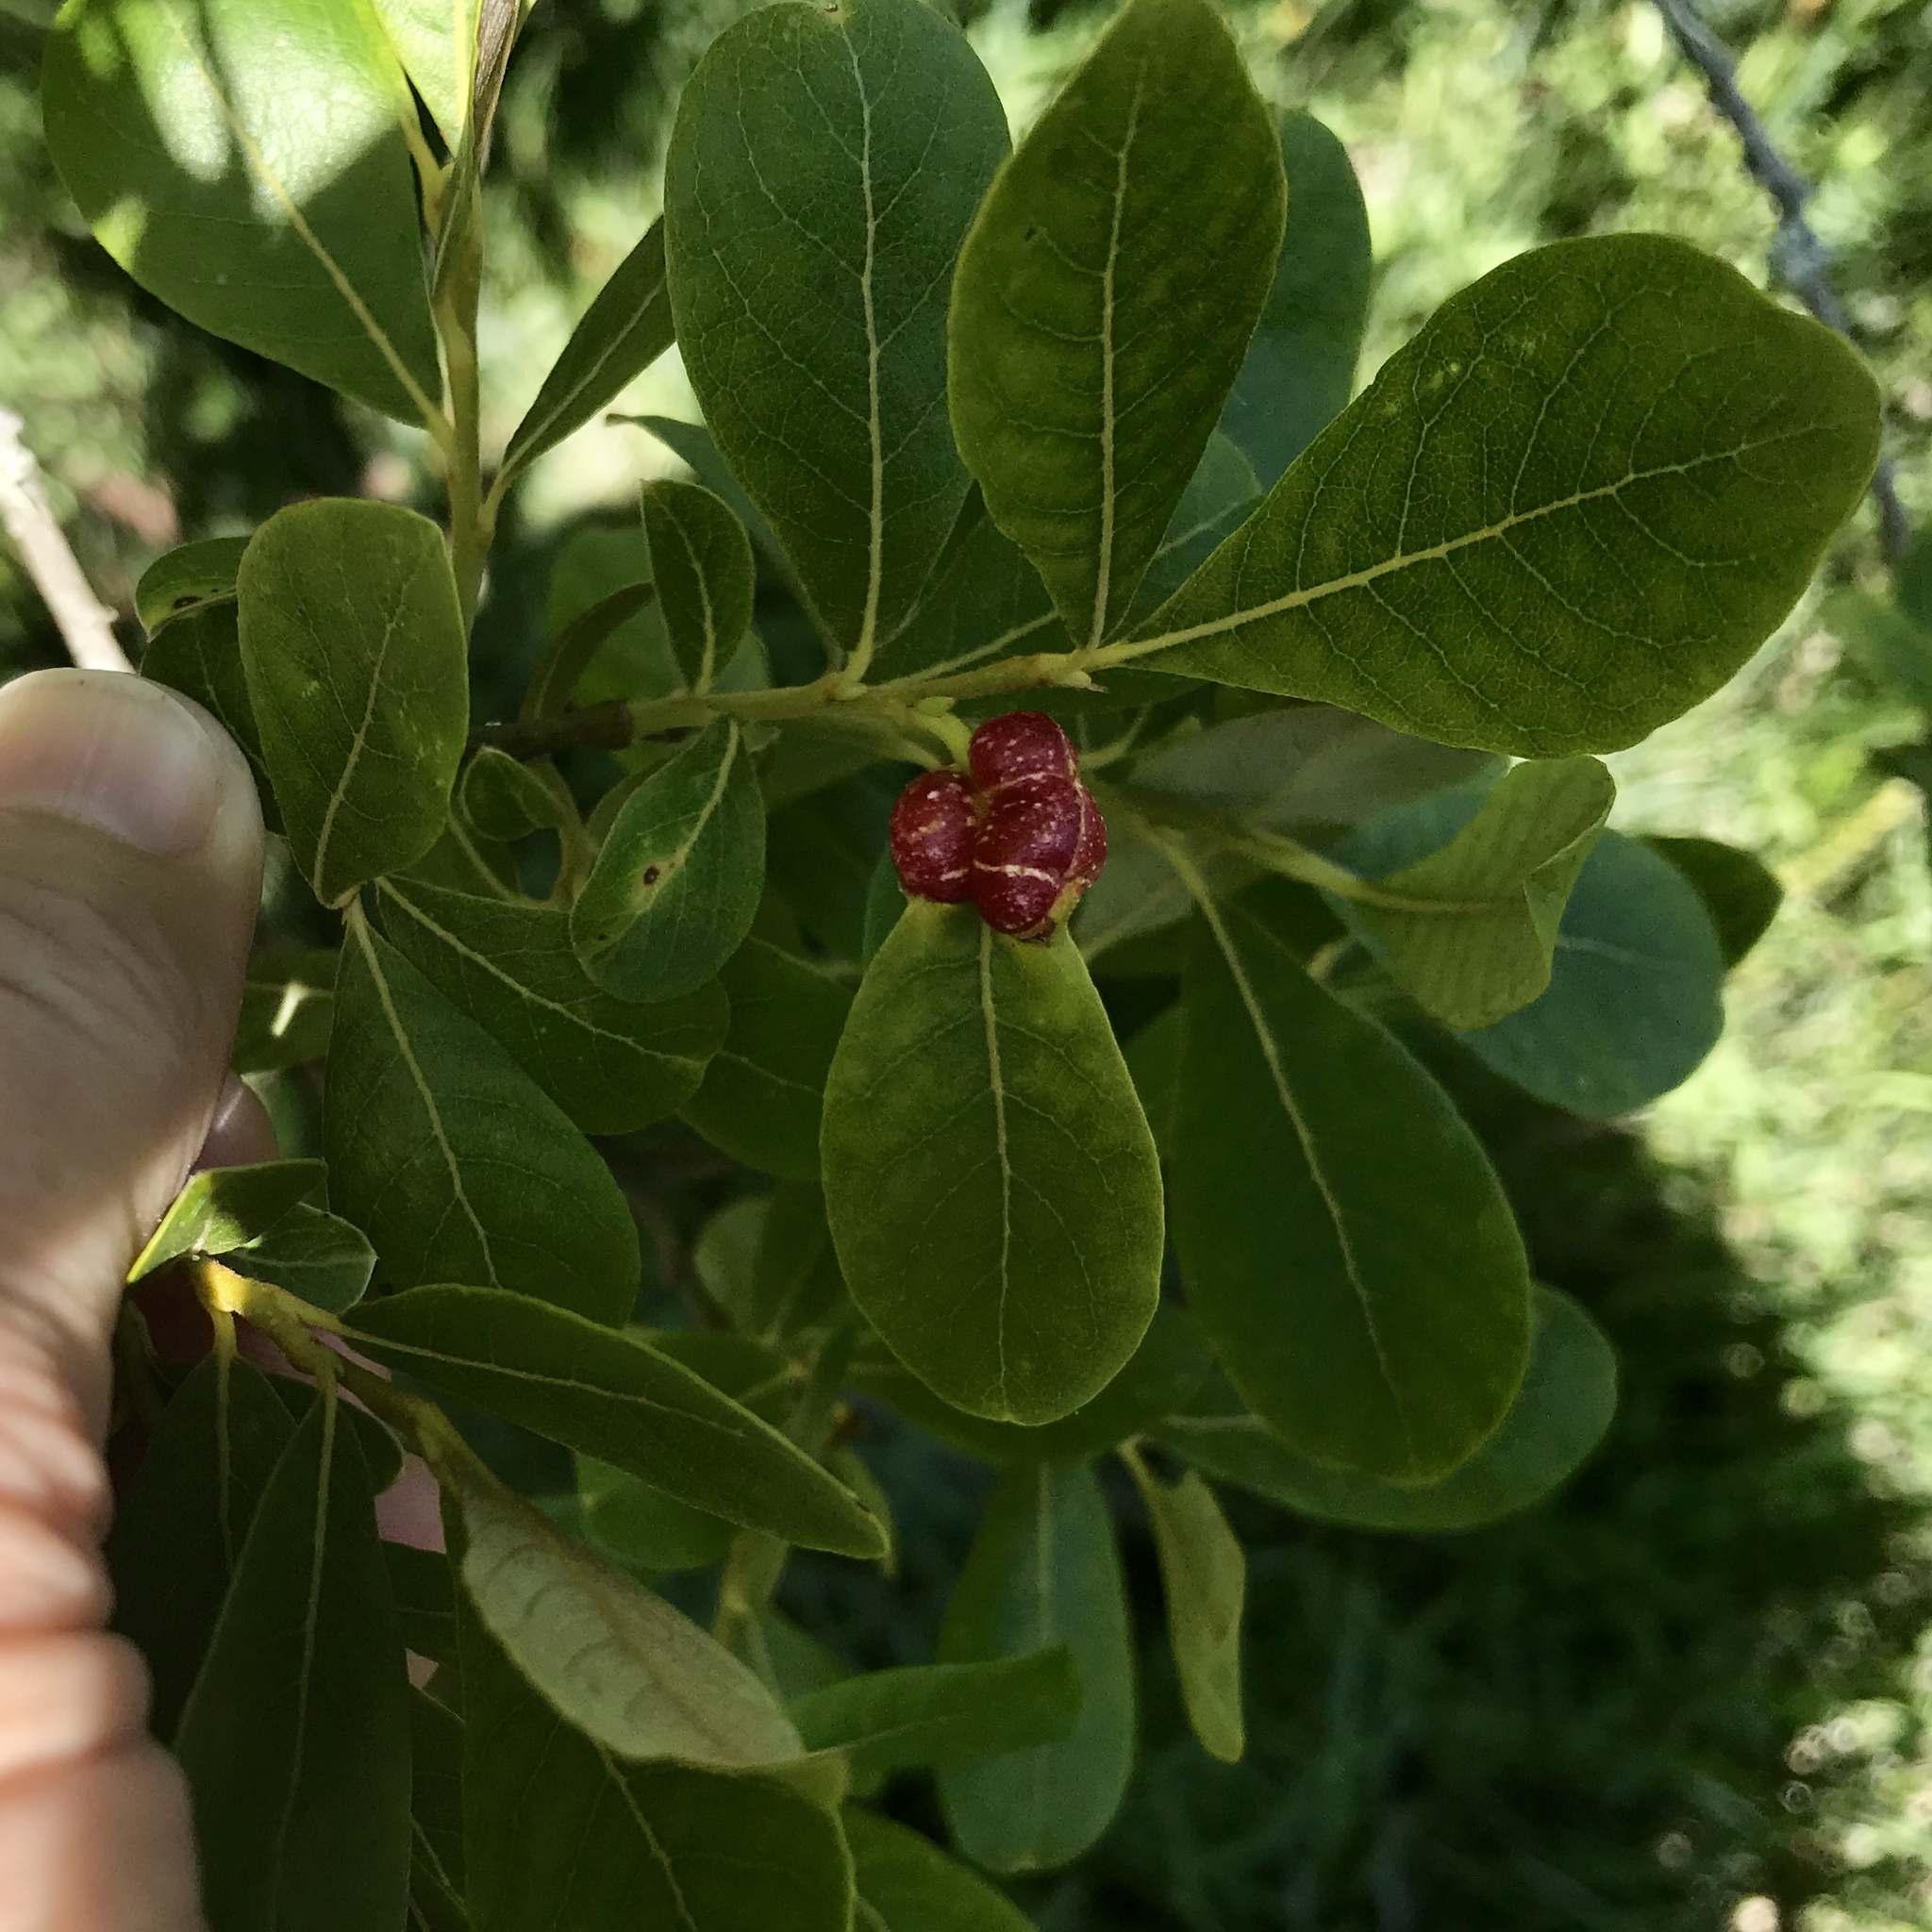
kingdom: Animalia
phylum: Arthropoda
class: Insecta
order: Hymenoptera
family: Tenthredinidae
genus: Euura
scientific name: Euura
